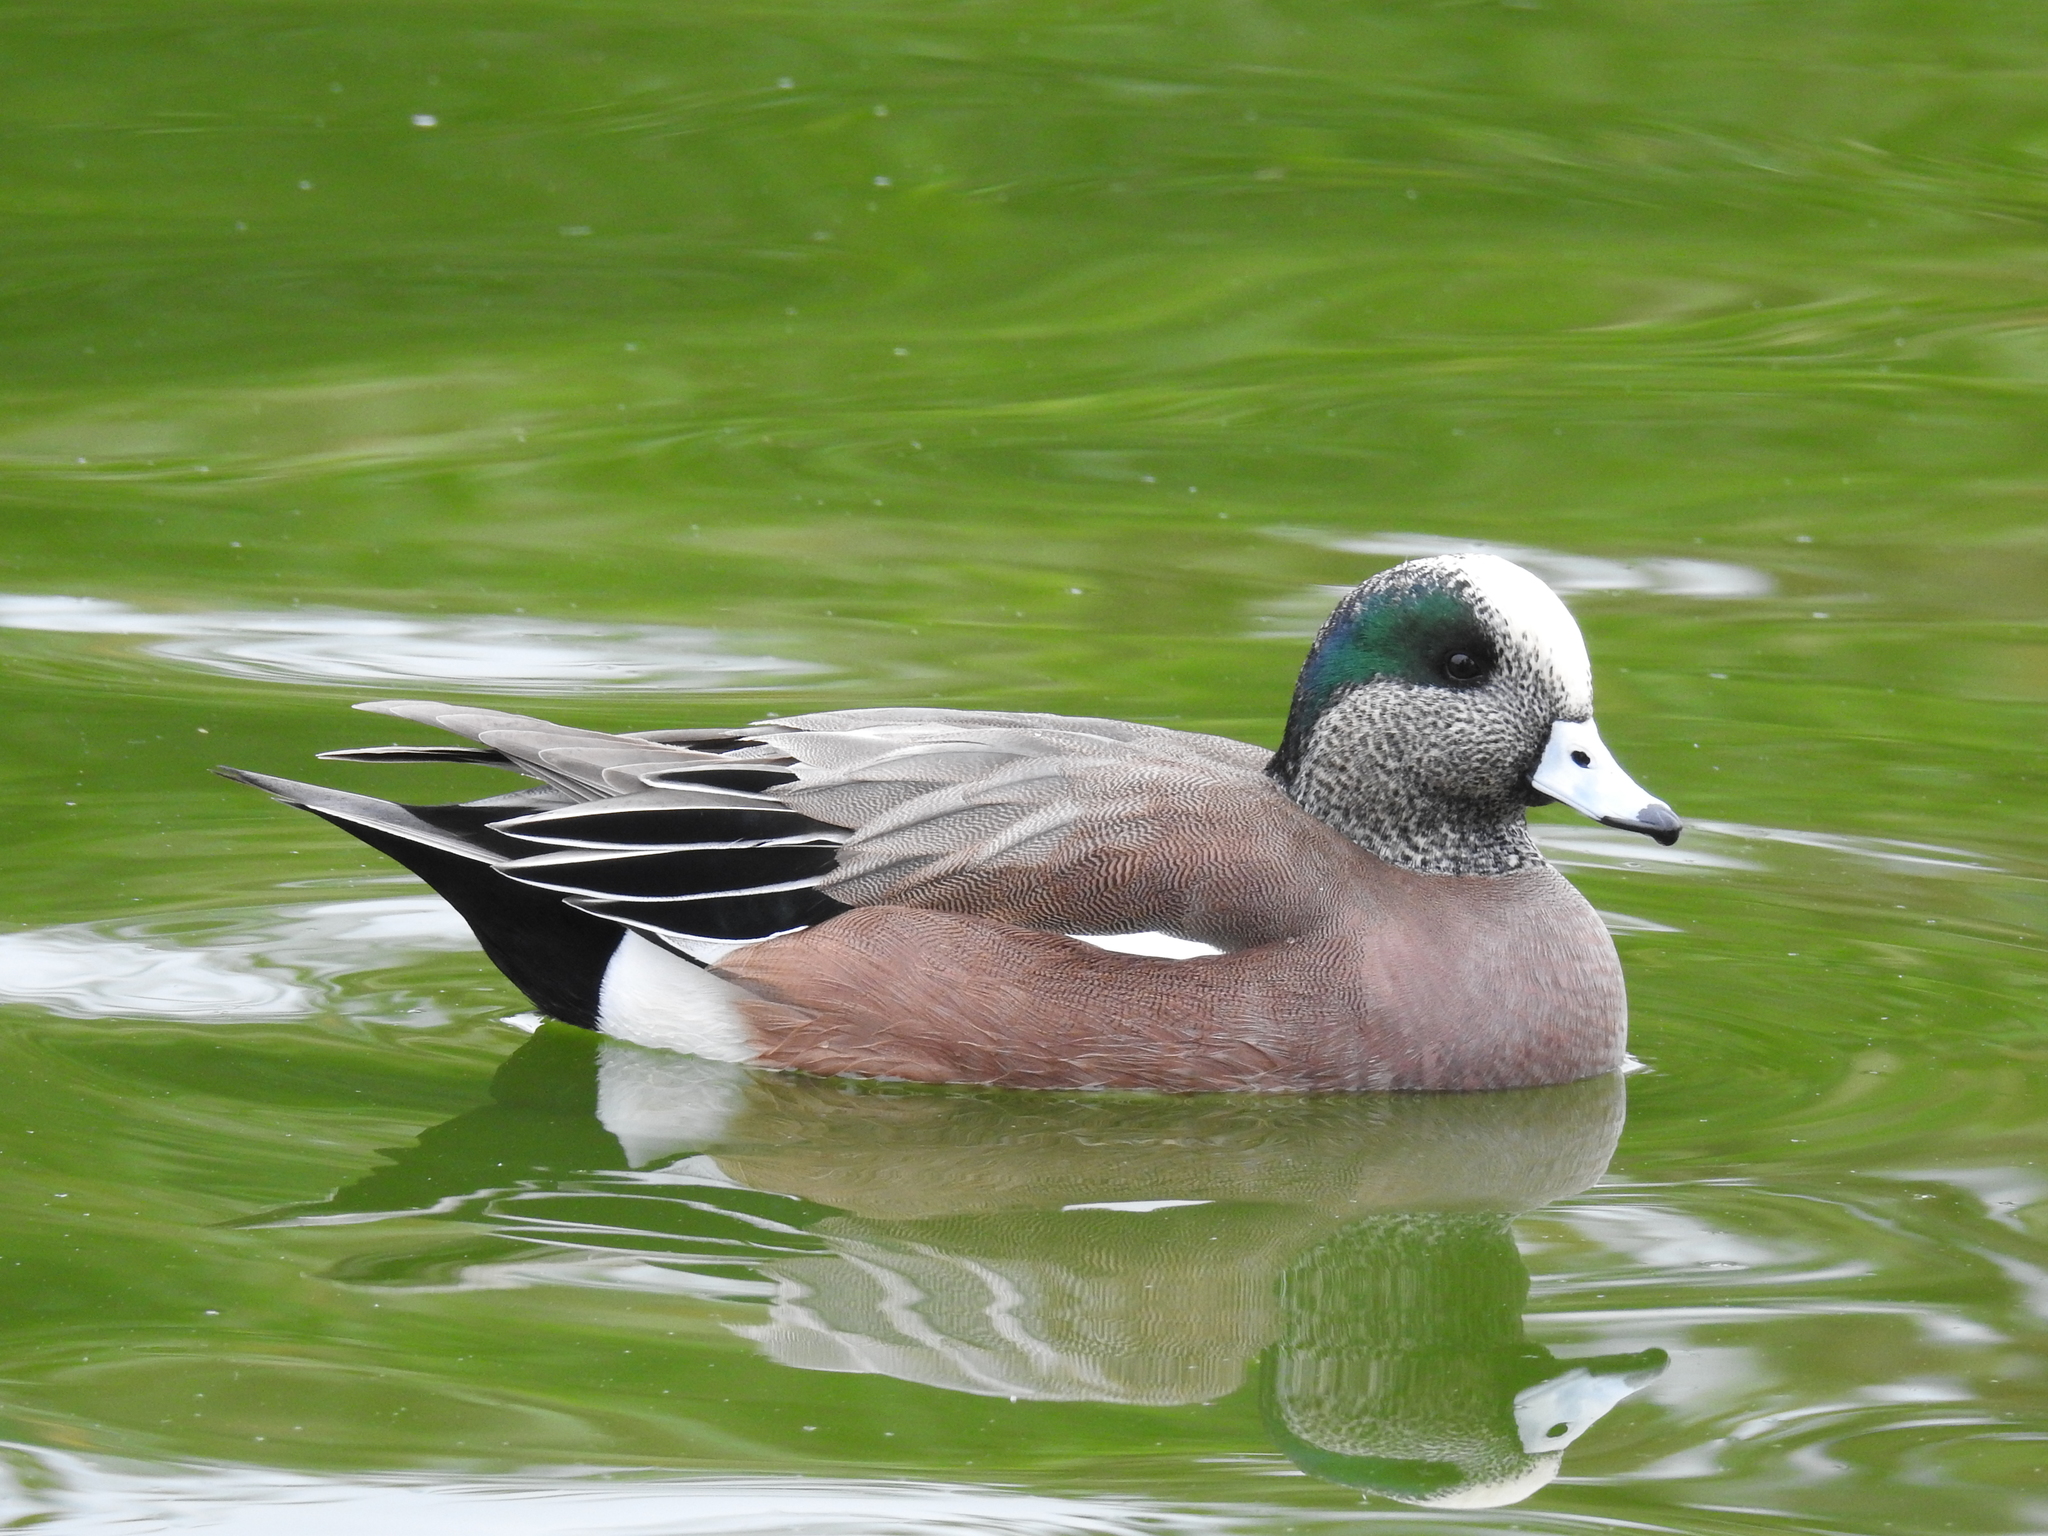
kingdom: Animalia
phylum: Chordata
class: Aves
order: Anseriformes
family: Anatidae
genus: Mareca
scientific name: Mareca americana
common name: American wigeon
